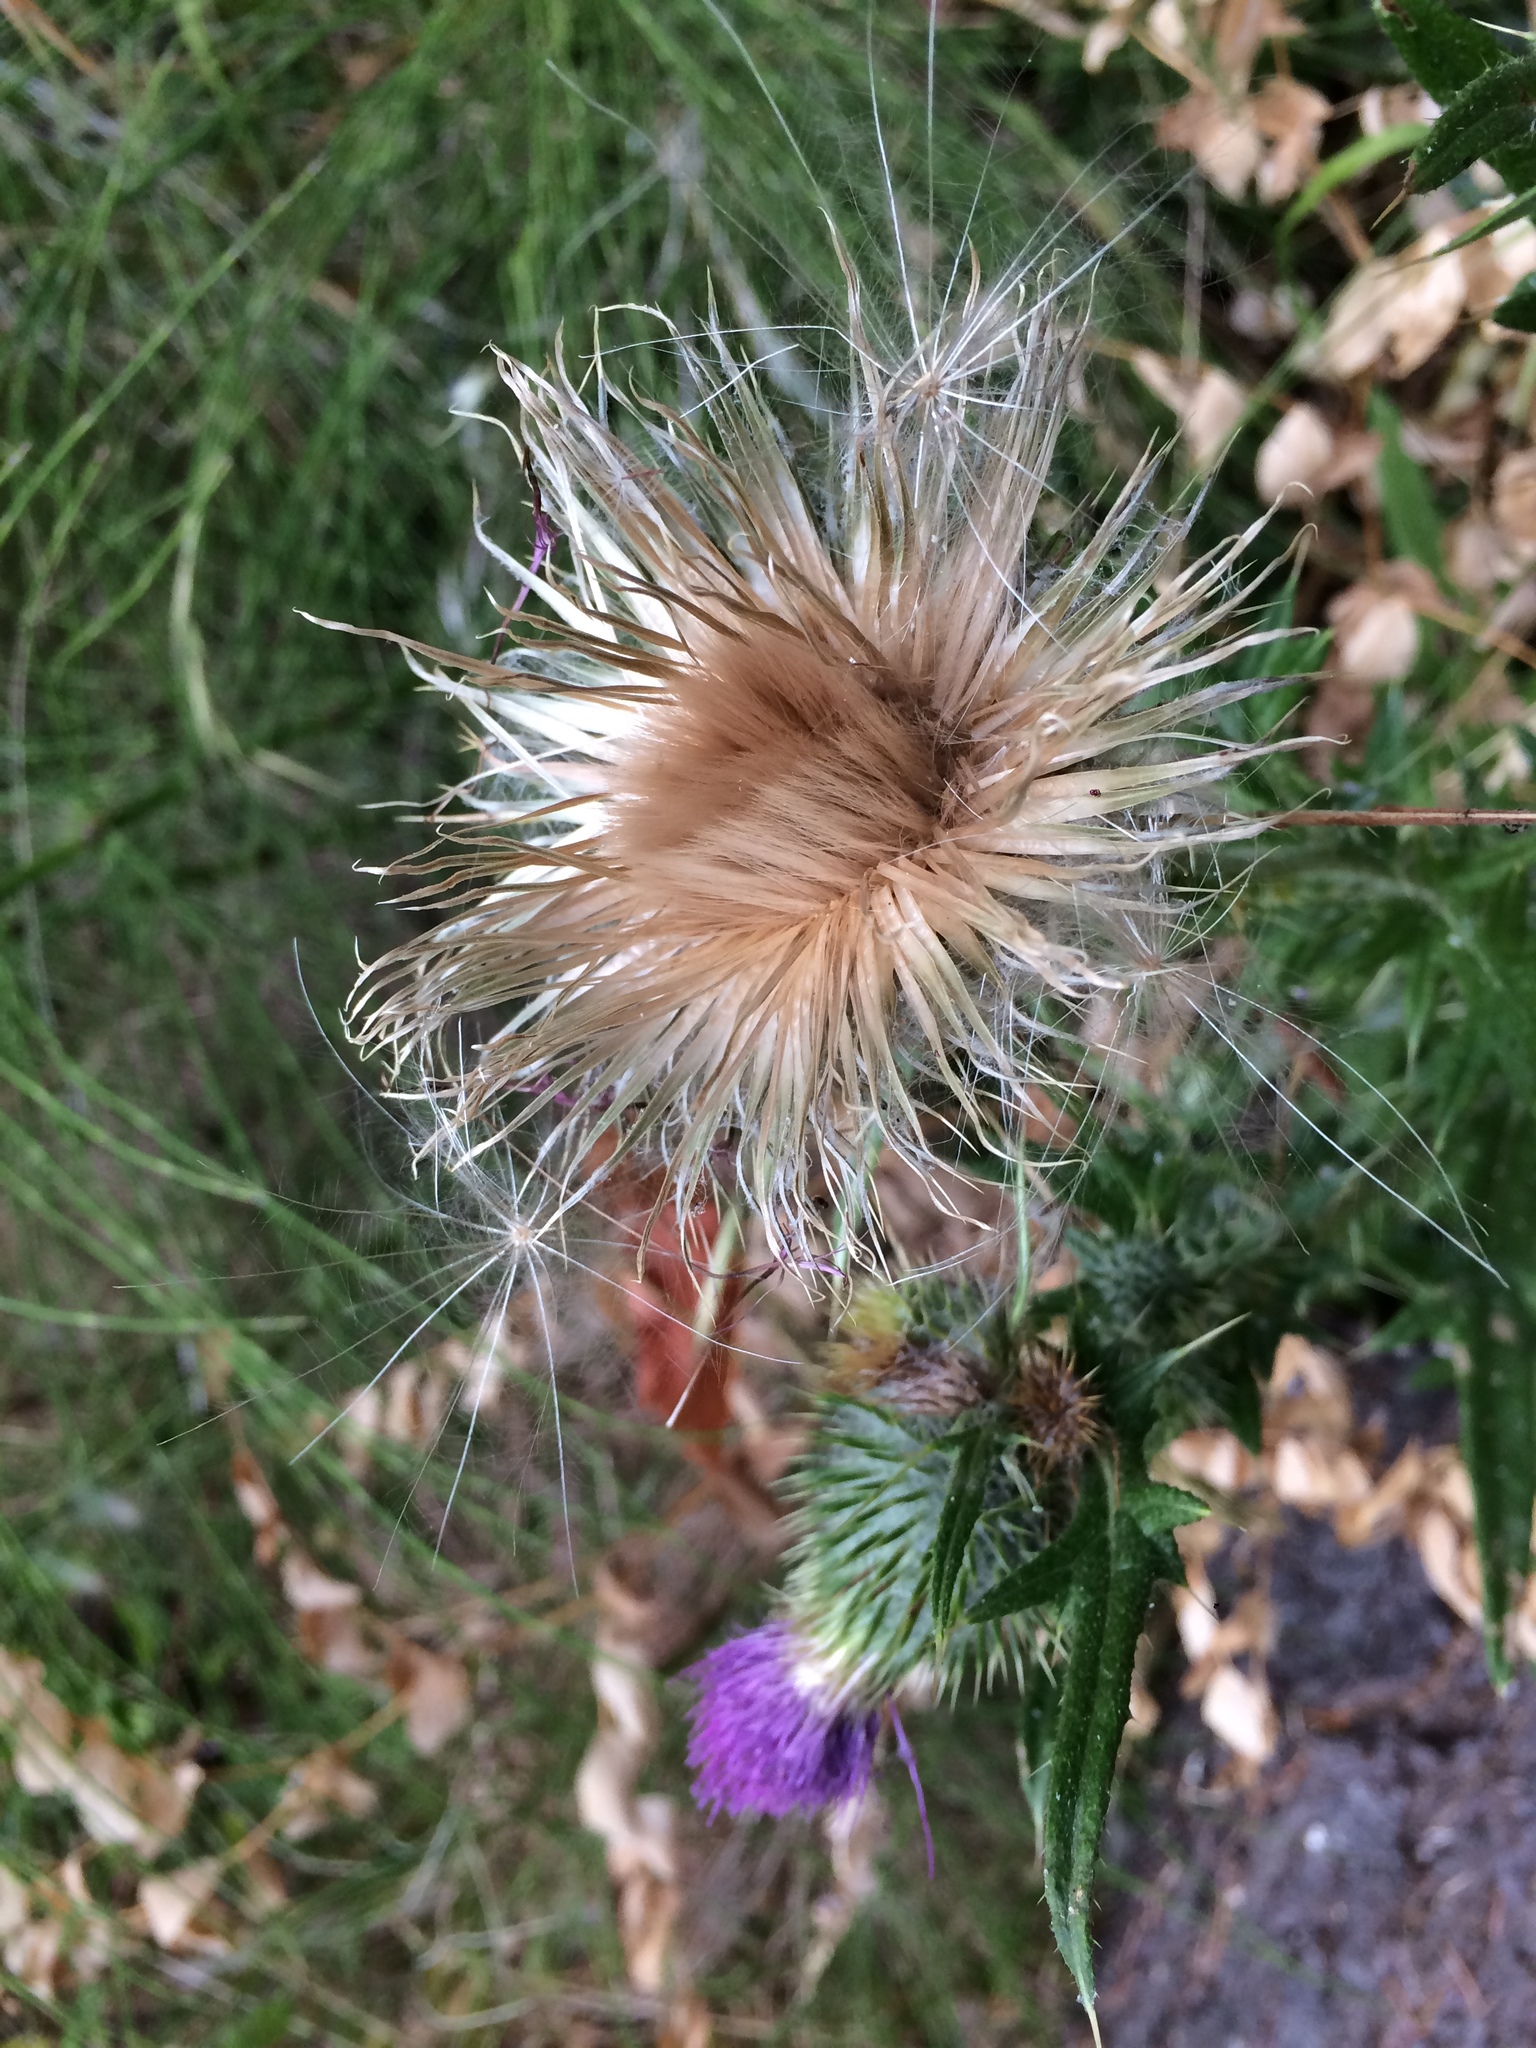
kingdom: Plantae
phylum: Tracheophyta
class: Magnoliopsida
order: Asterales
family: Asteraceae
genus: Cirsium
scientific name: Cirsium vulgare
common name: Bull thistle
